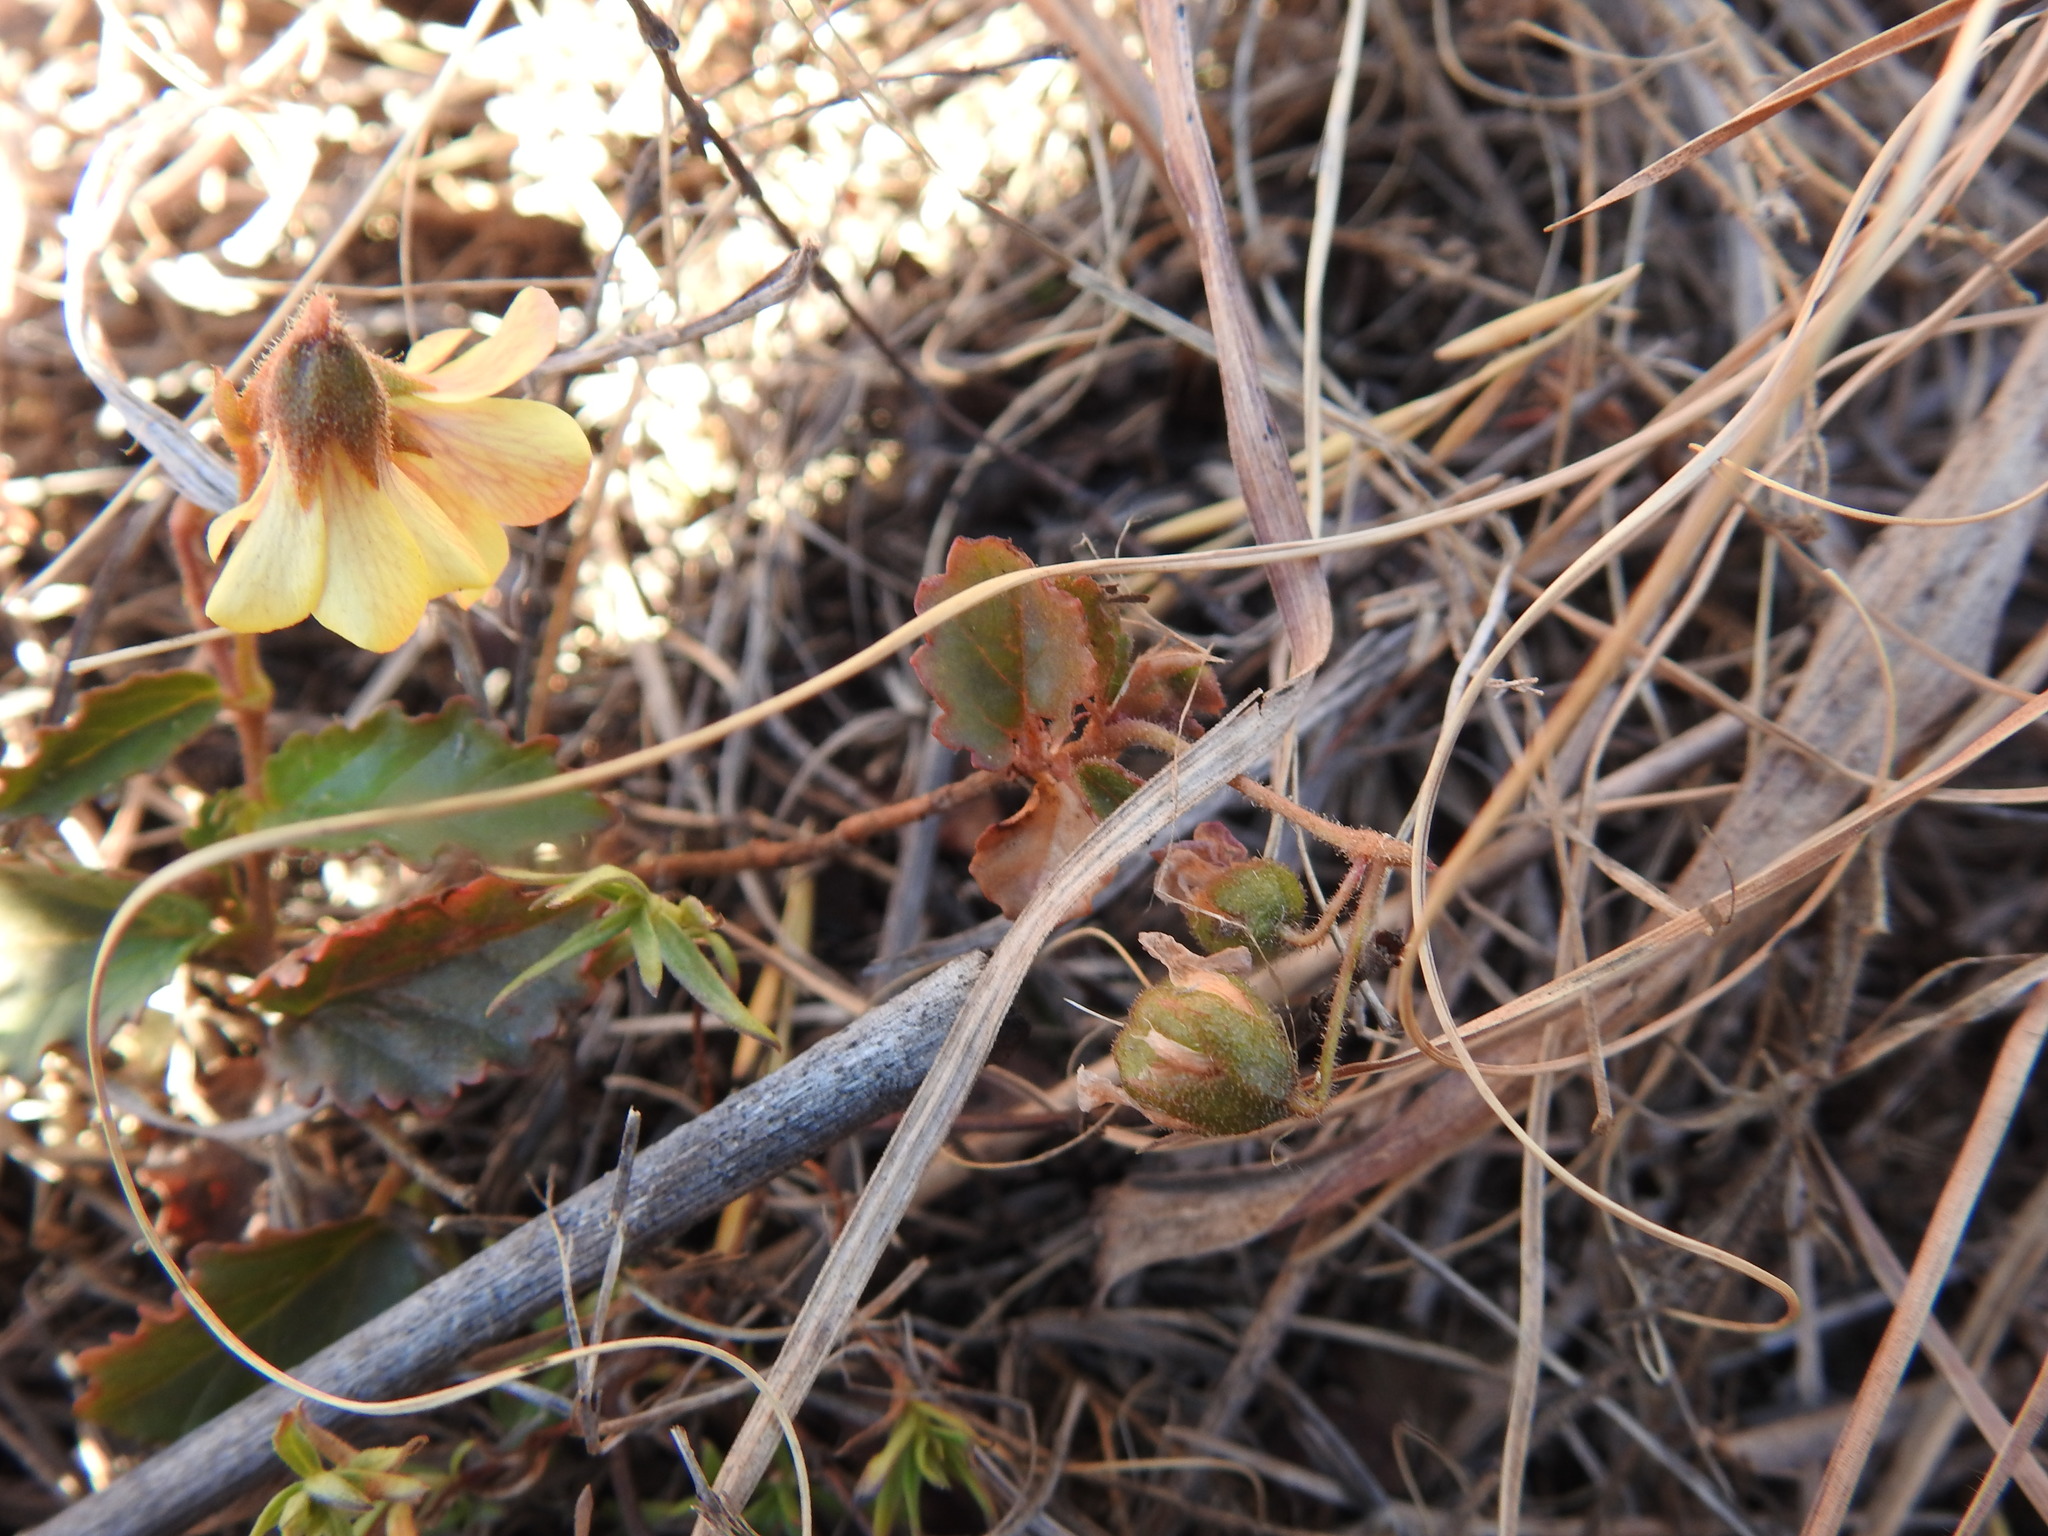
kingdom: Plantae
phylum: Tracheophyta
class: Magnoliopsida
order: Malvales
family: Malvaceae
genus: Hermannia
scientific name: Hermannia depressa
